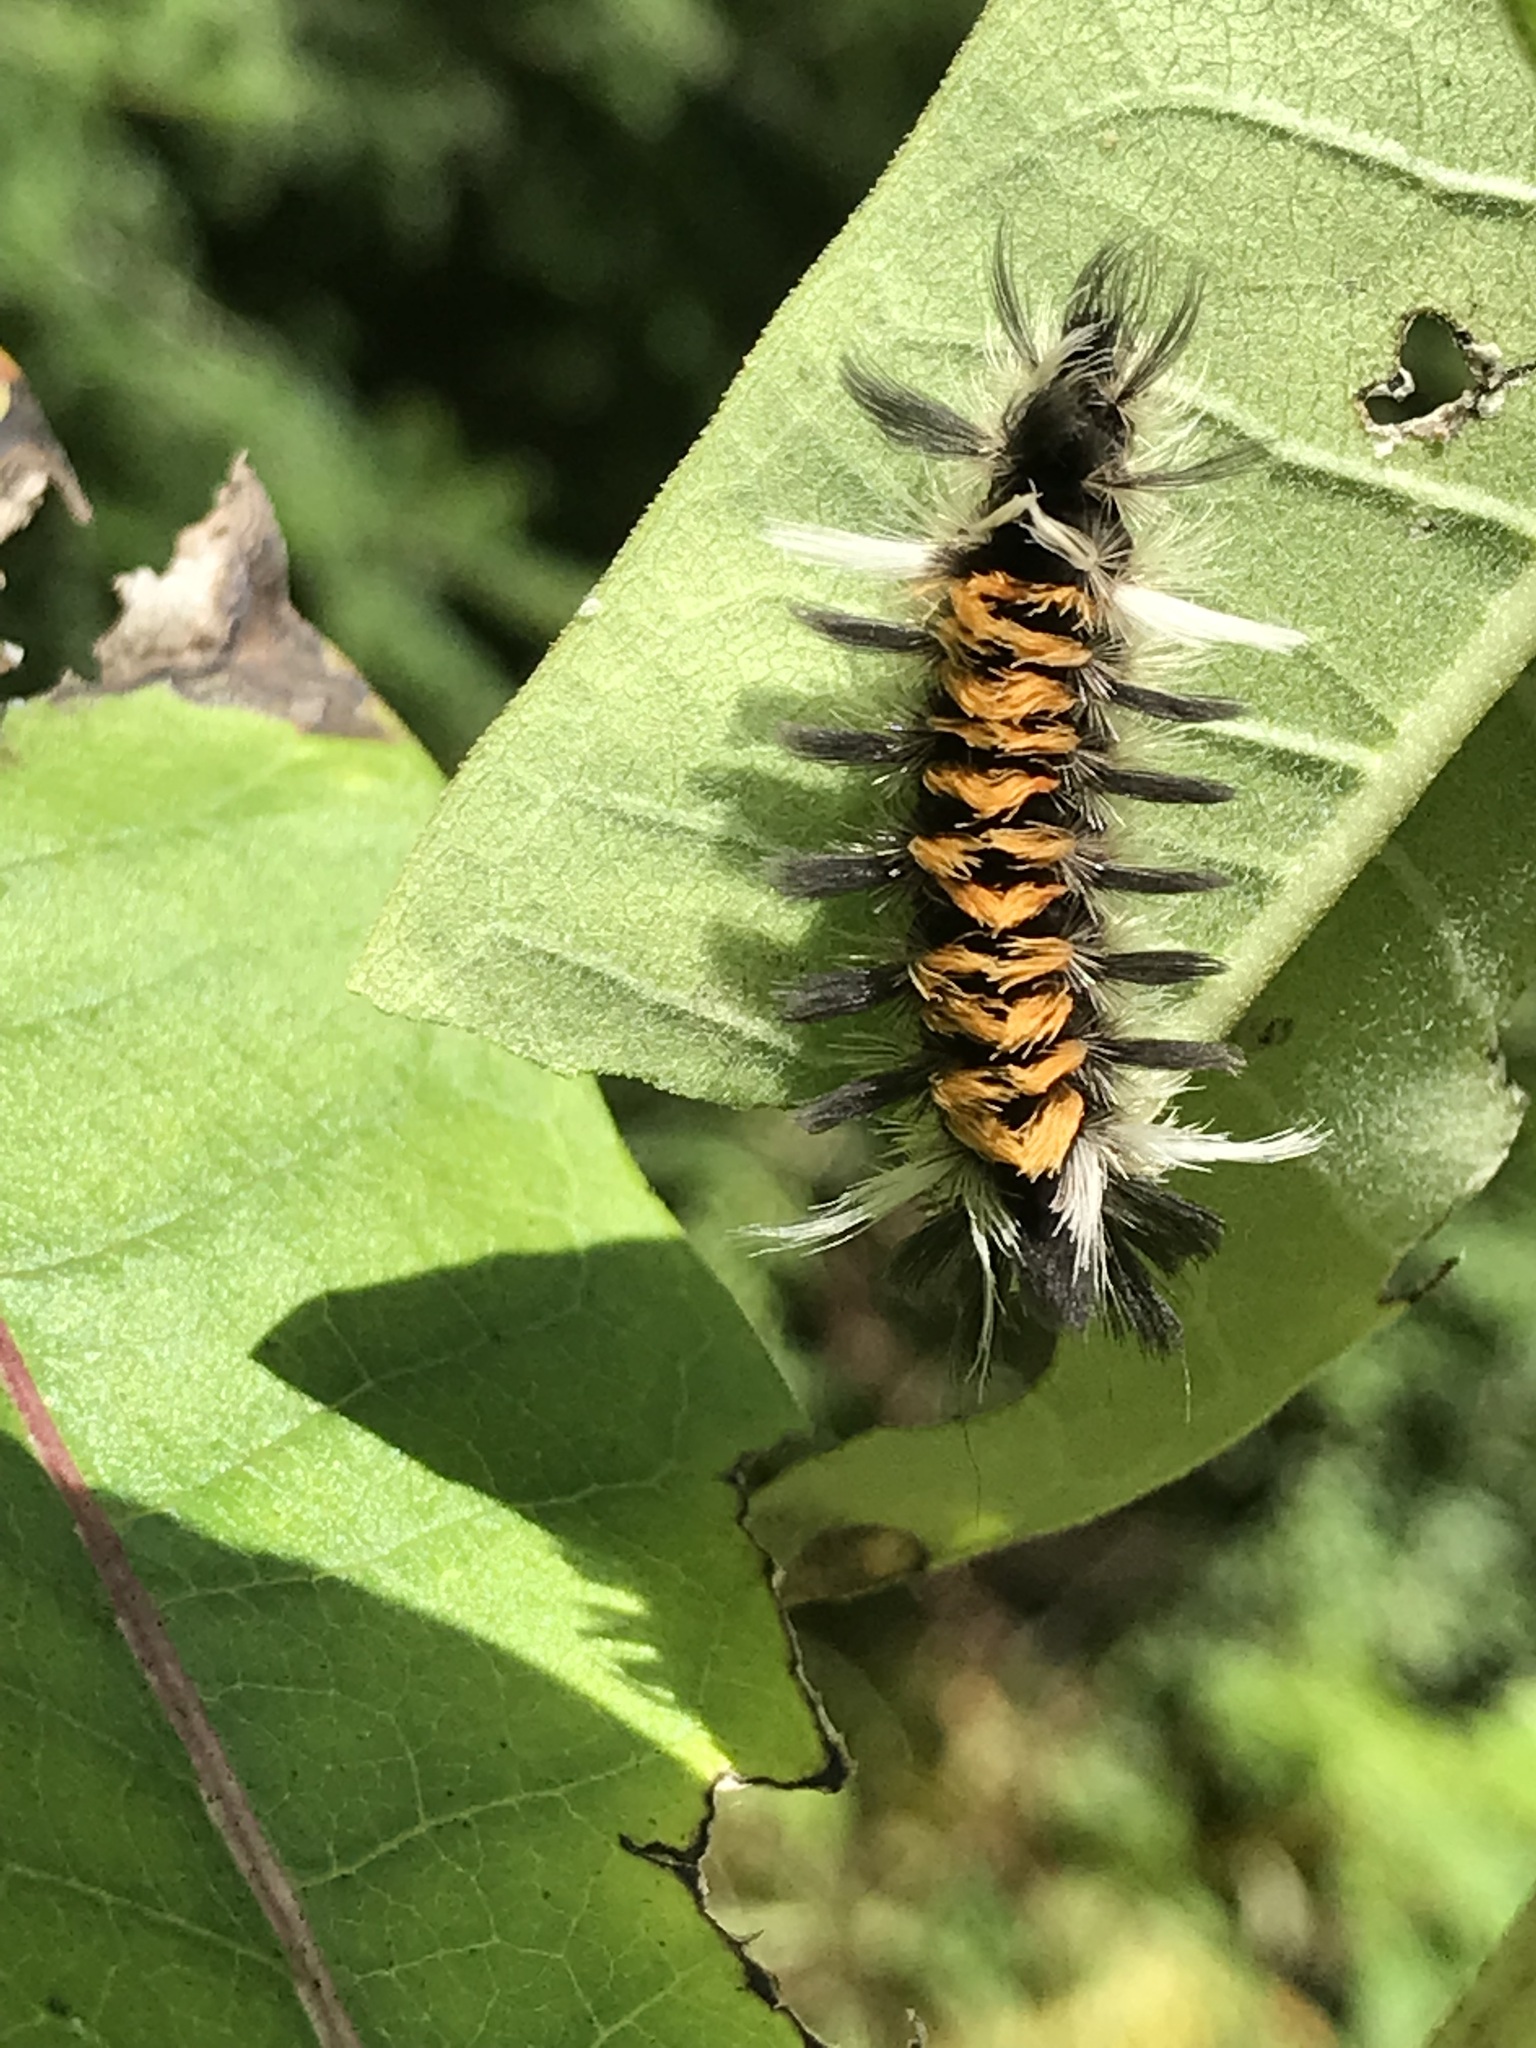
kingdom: Animalia
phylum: Arthropoda
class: Insecta
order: Lepidoptera
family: Erebidae
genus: Euchaetes
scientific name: Euchaetes egle
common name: Milkweed tussock moth
